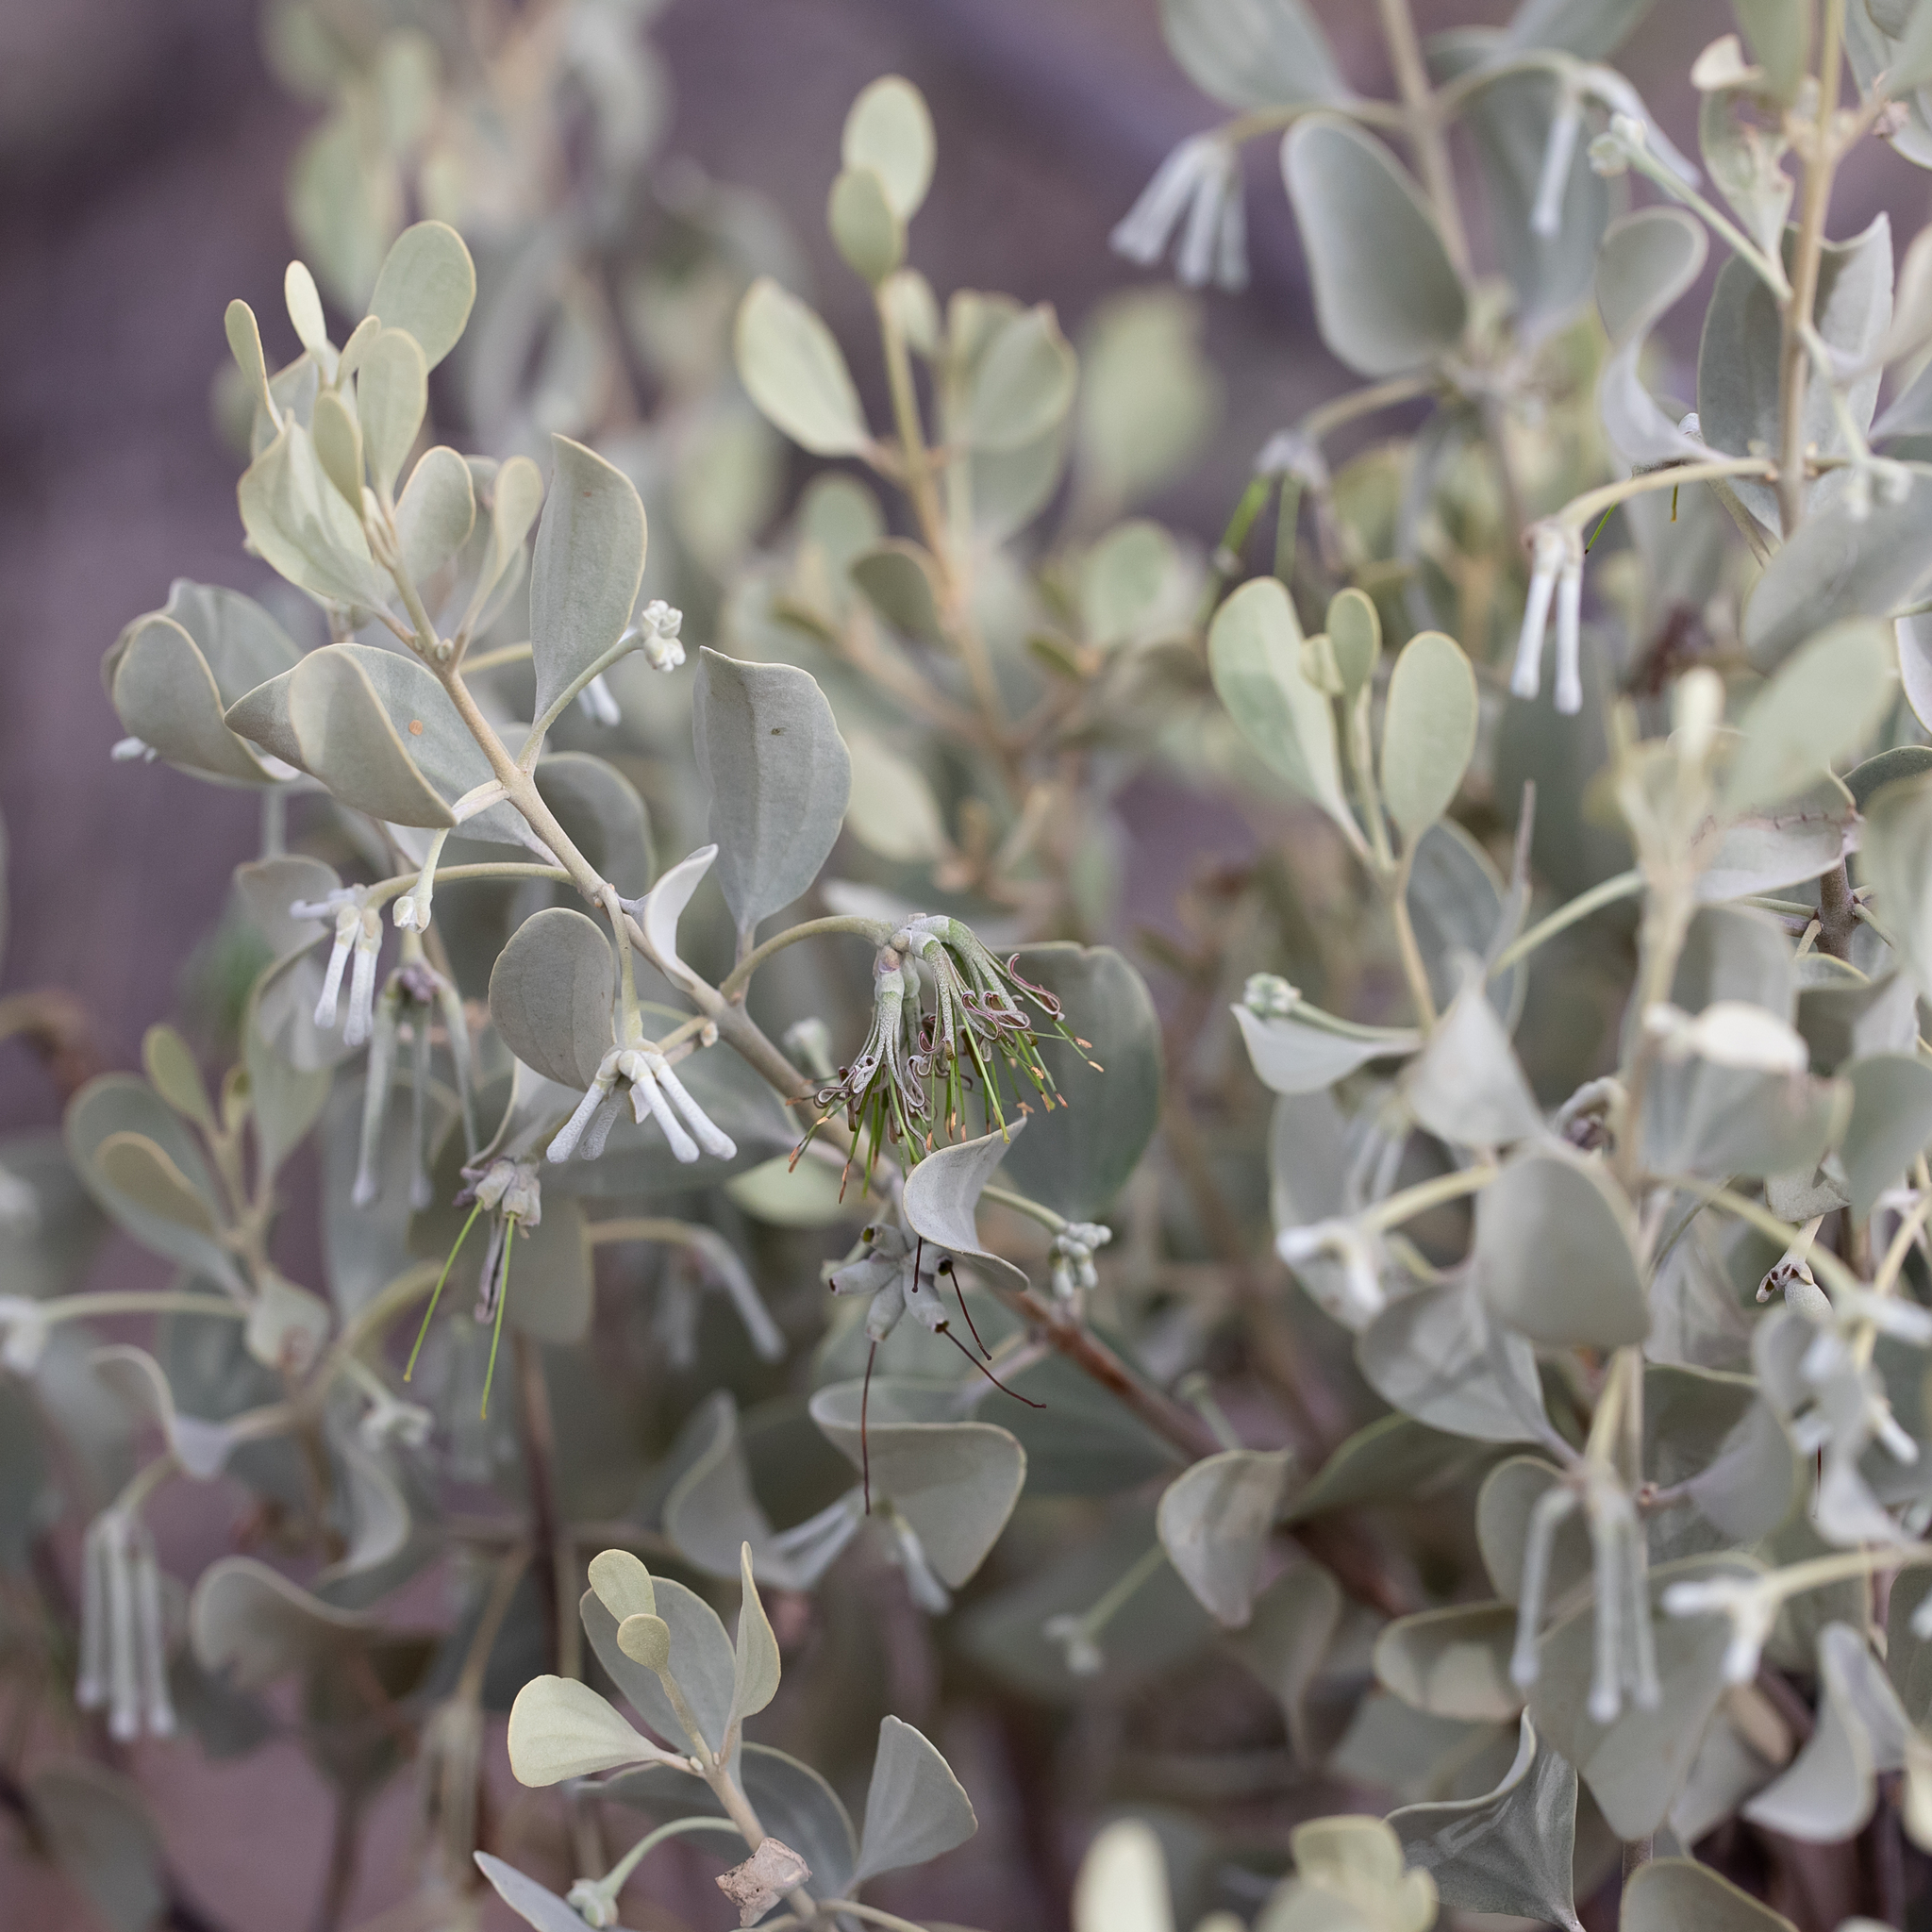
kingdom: Plantae
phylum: Tracheophyta
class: Magnoliopsida
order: Santalales
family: Loranthaceae
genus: Amyema
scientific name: Amyema maidenii
